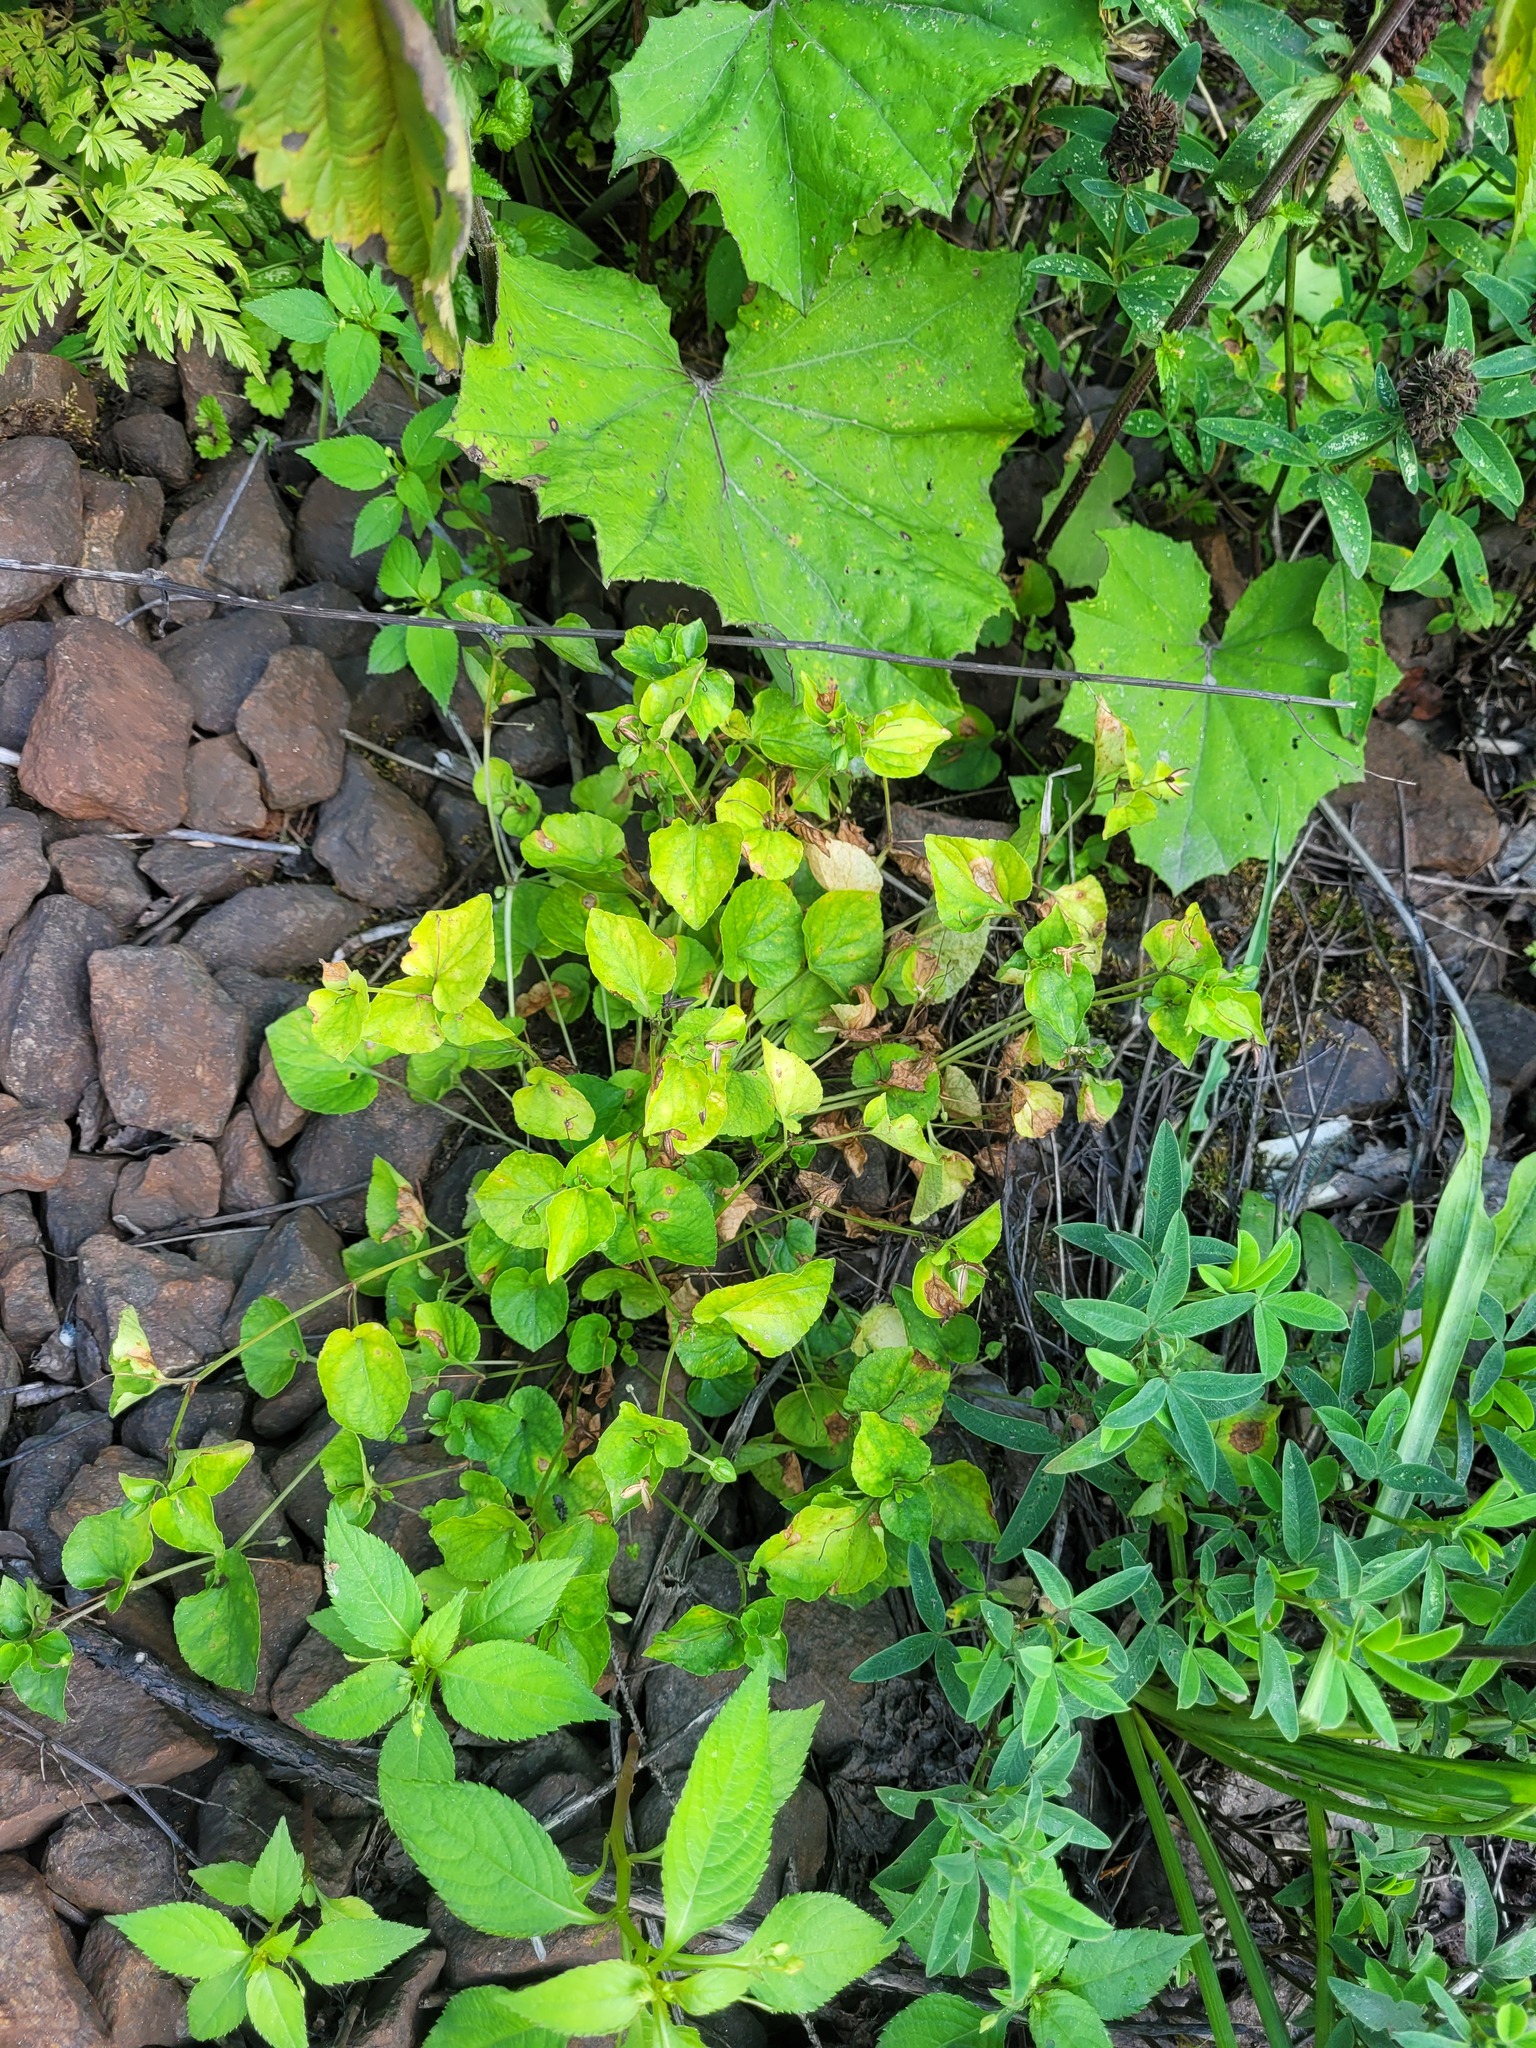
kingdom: Plantae
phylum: Tracheophyta
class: Magnoliopsida
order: Malpighiales
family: Violaceae
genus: Viola
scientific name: Viola riviniana
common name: Common dog-violet
